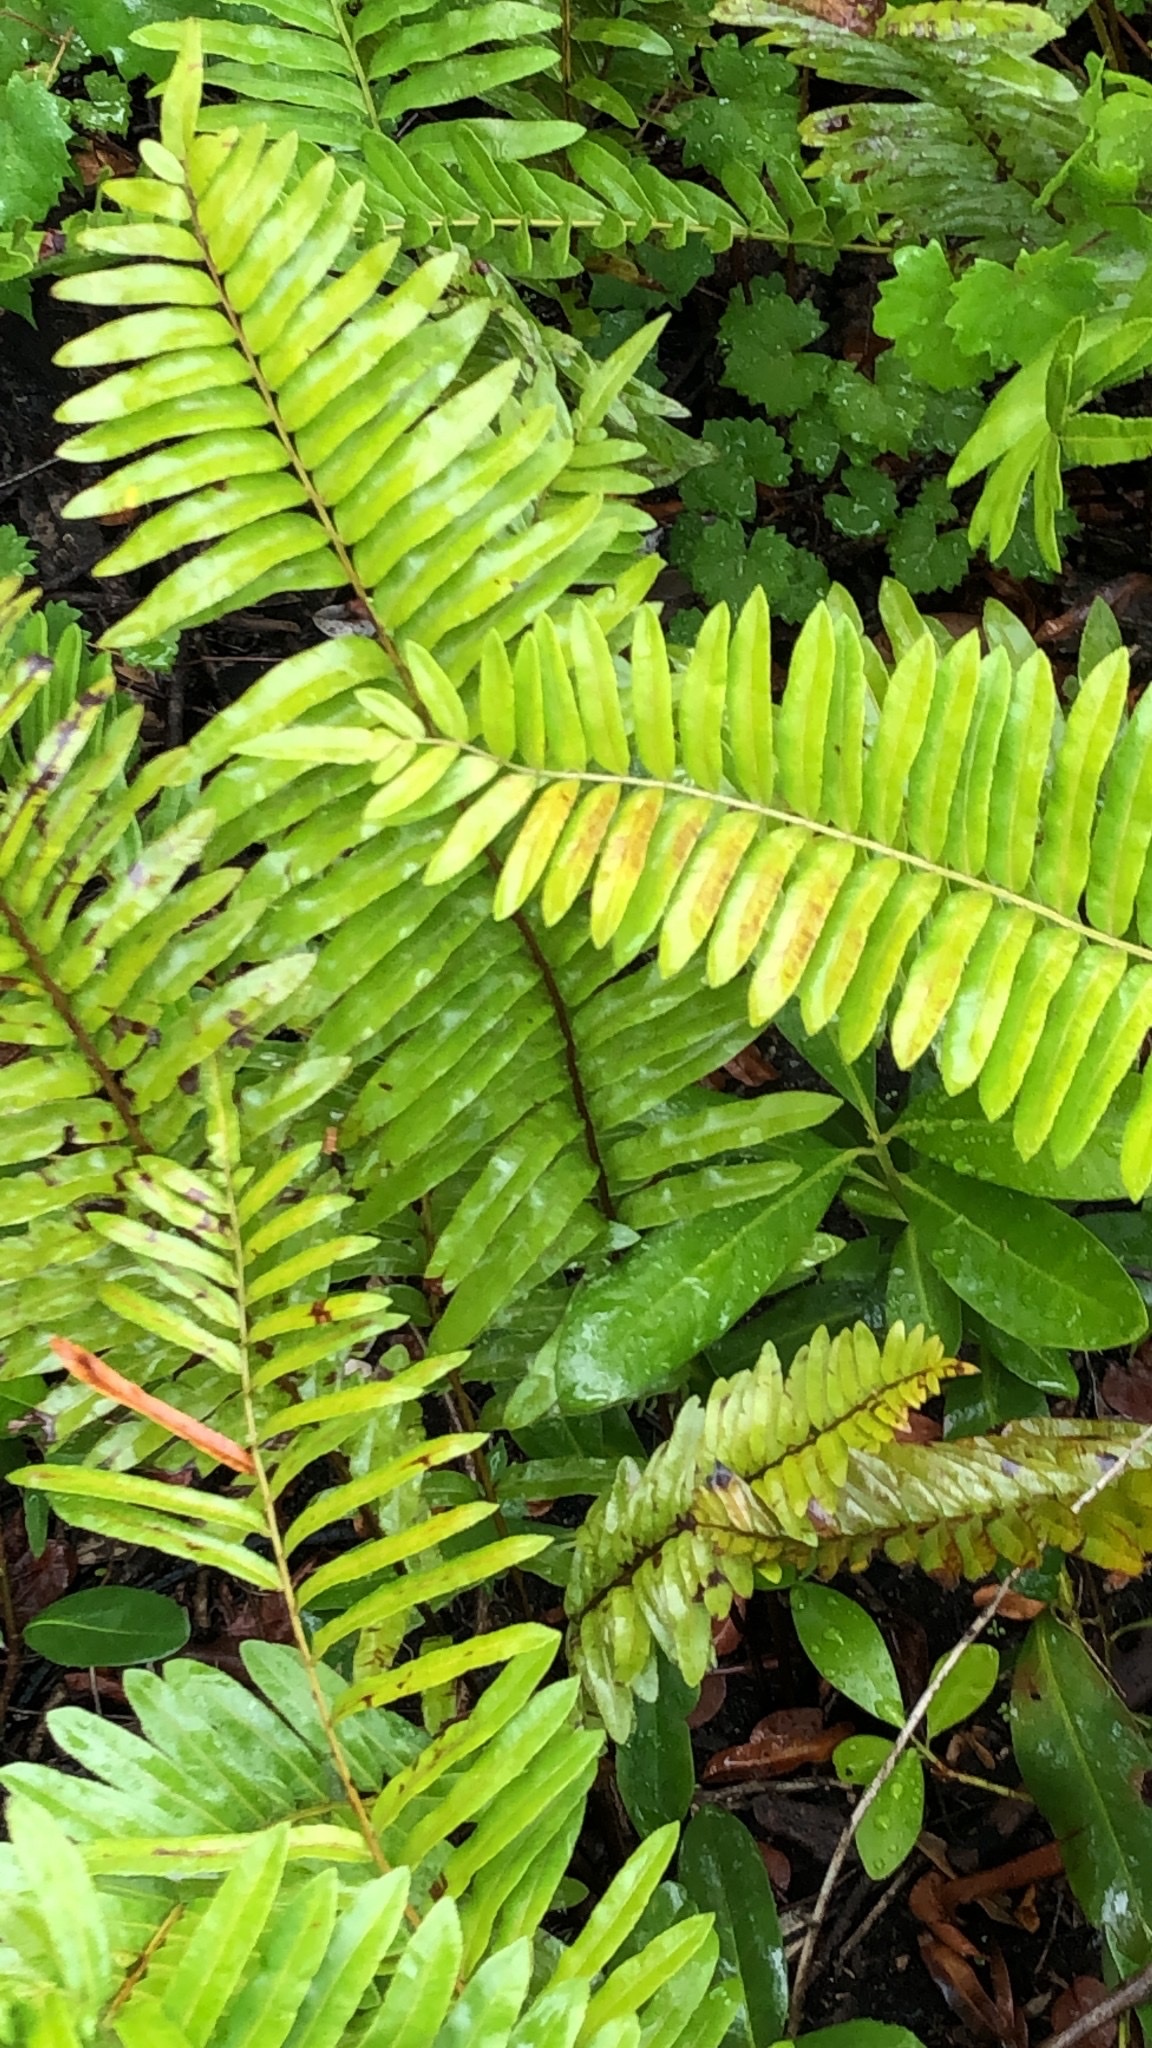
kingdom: Plantae
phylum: Tracheophyta
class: Polypodiopsida
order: Polypodiales
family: Blechnaceae
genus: Telmatoblechnum
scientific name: Telmatoblechnum serrulatum
